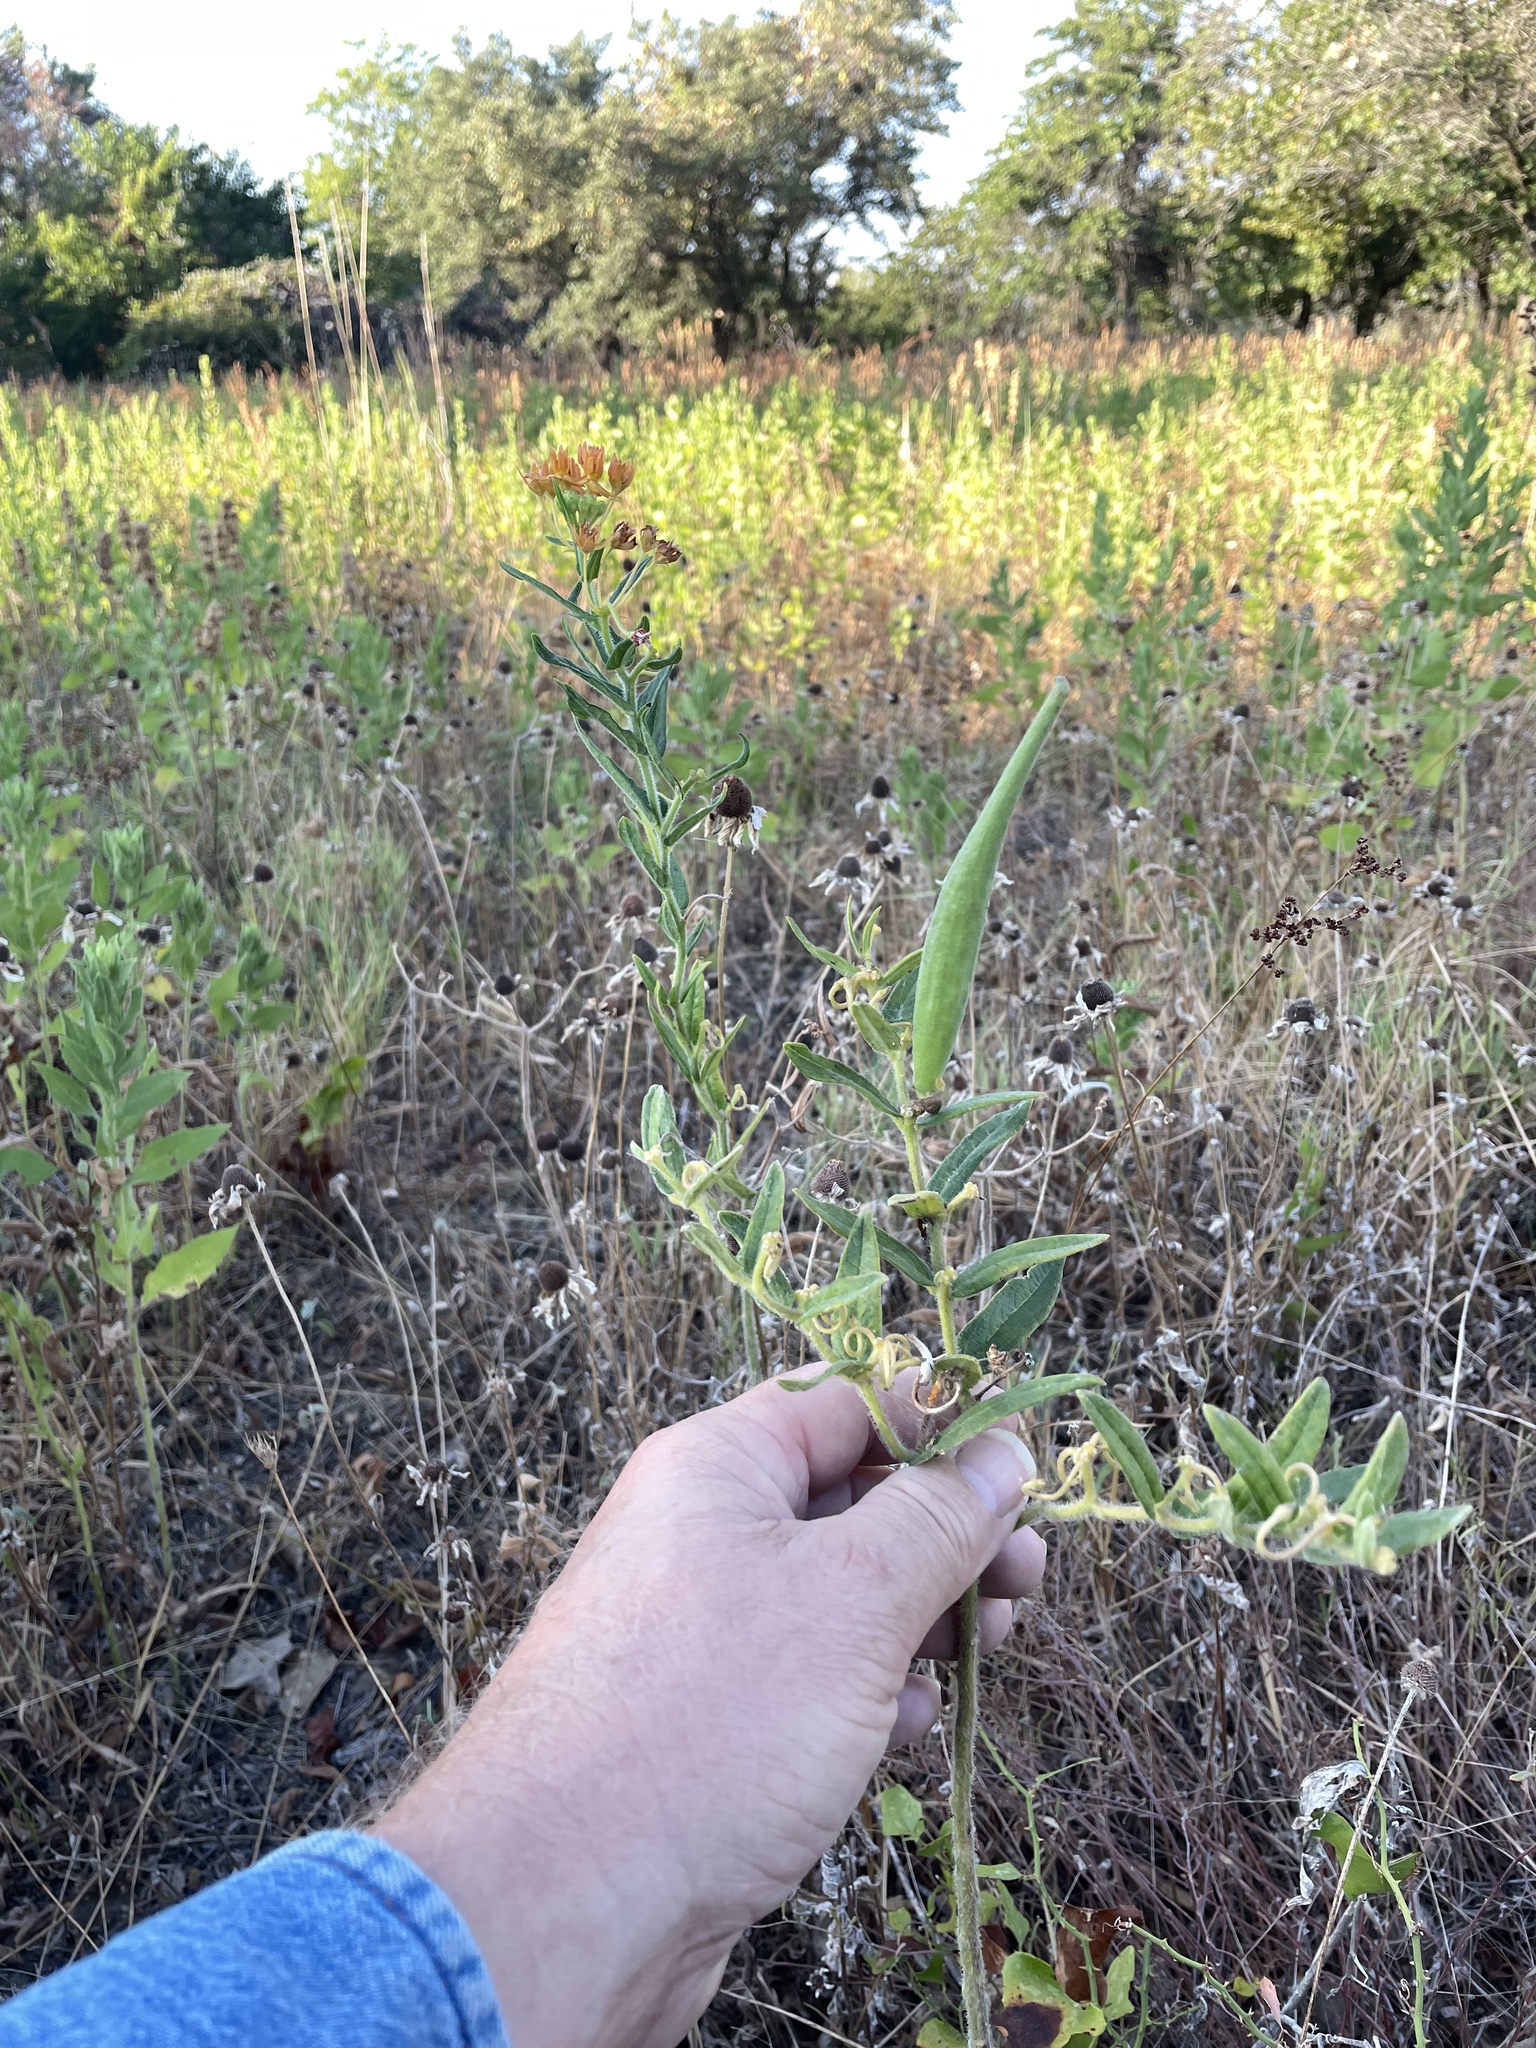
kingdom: Plantae
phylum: Tracheophyta
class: Magnoliopsida
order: Gentianales
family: Apocynaceae
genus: Asclepias
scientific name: Asclepias tuberosa
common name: Butterfly milkweed
